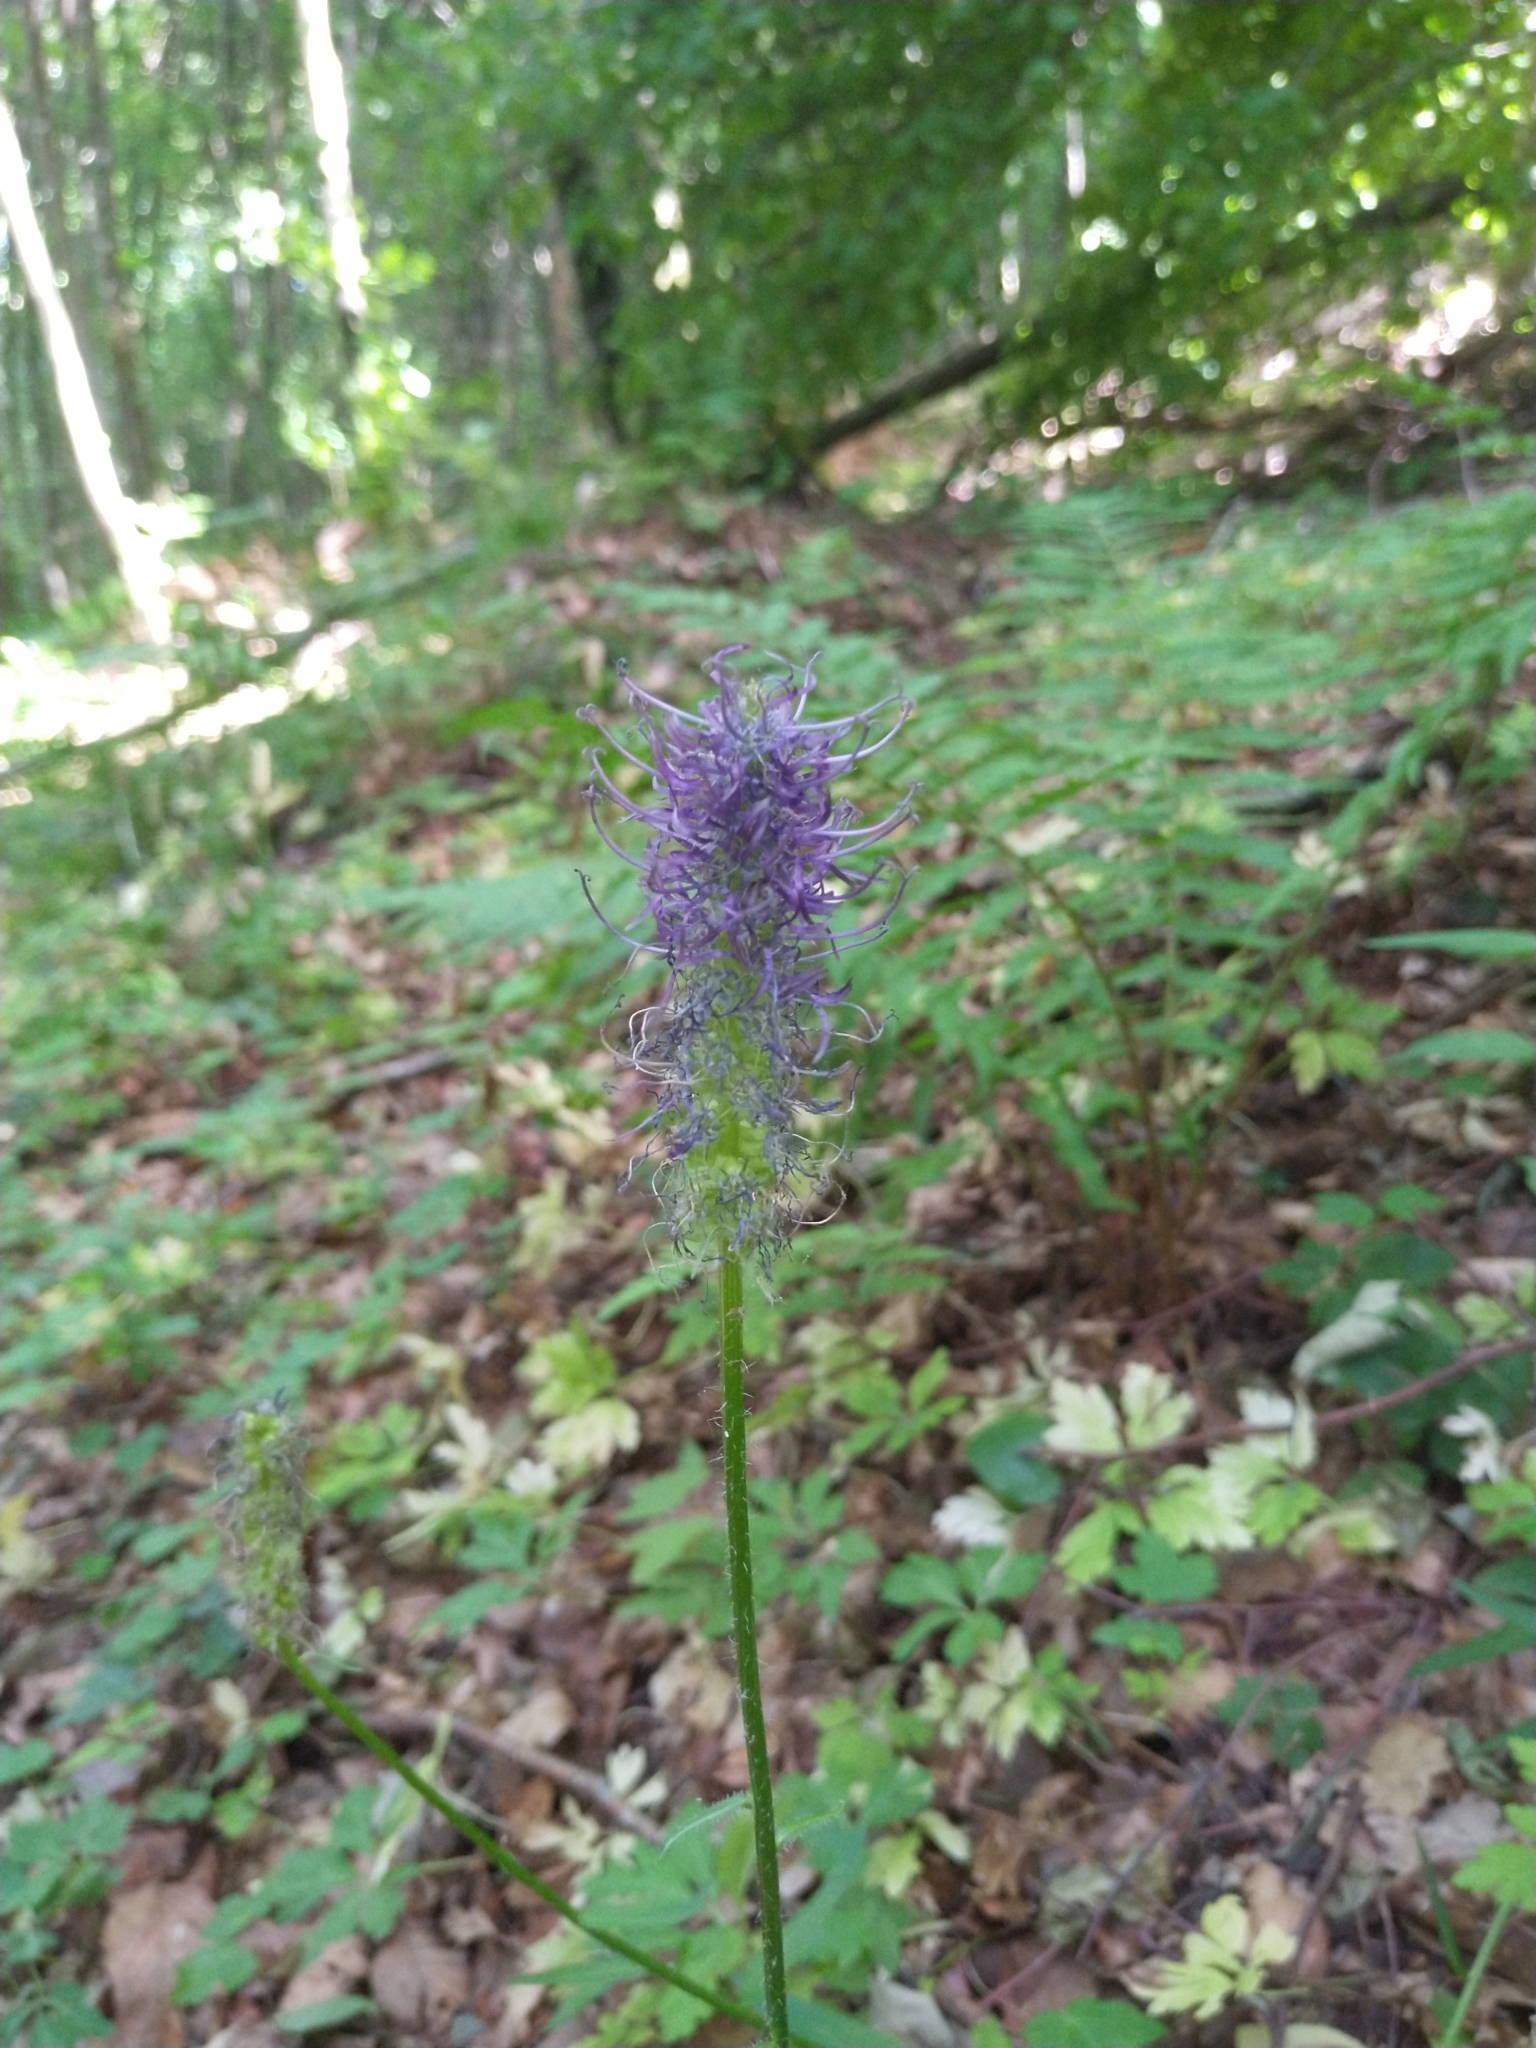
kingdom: Plantae
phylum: Tracheophyta
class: Magnoliopsida
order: Asterales
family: Campanulaceae
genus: Phyteuma
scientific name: Phyteuma nigrum
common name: Black rampion
